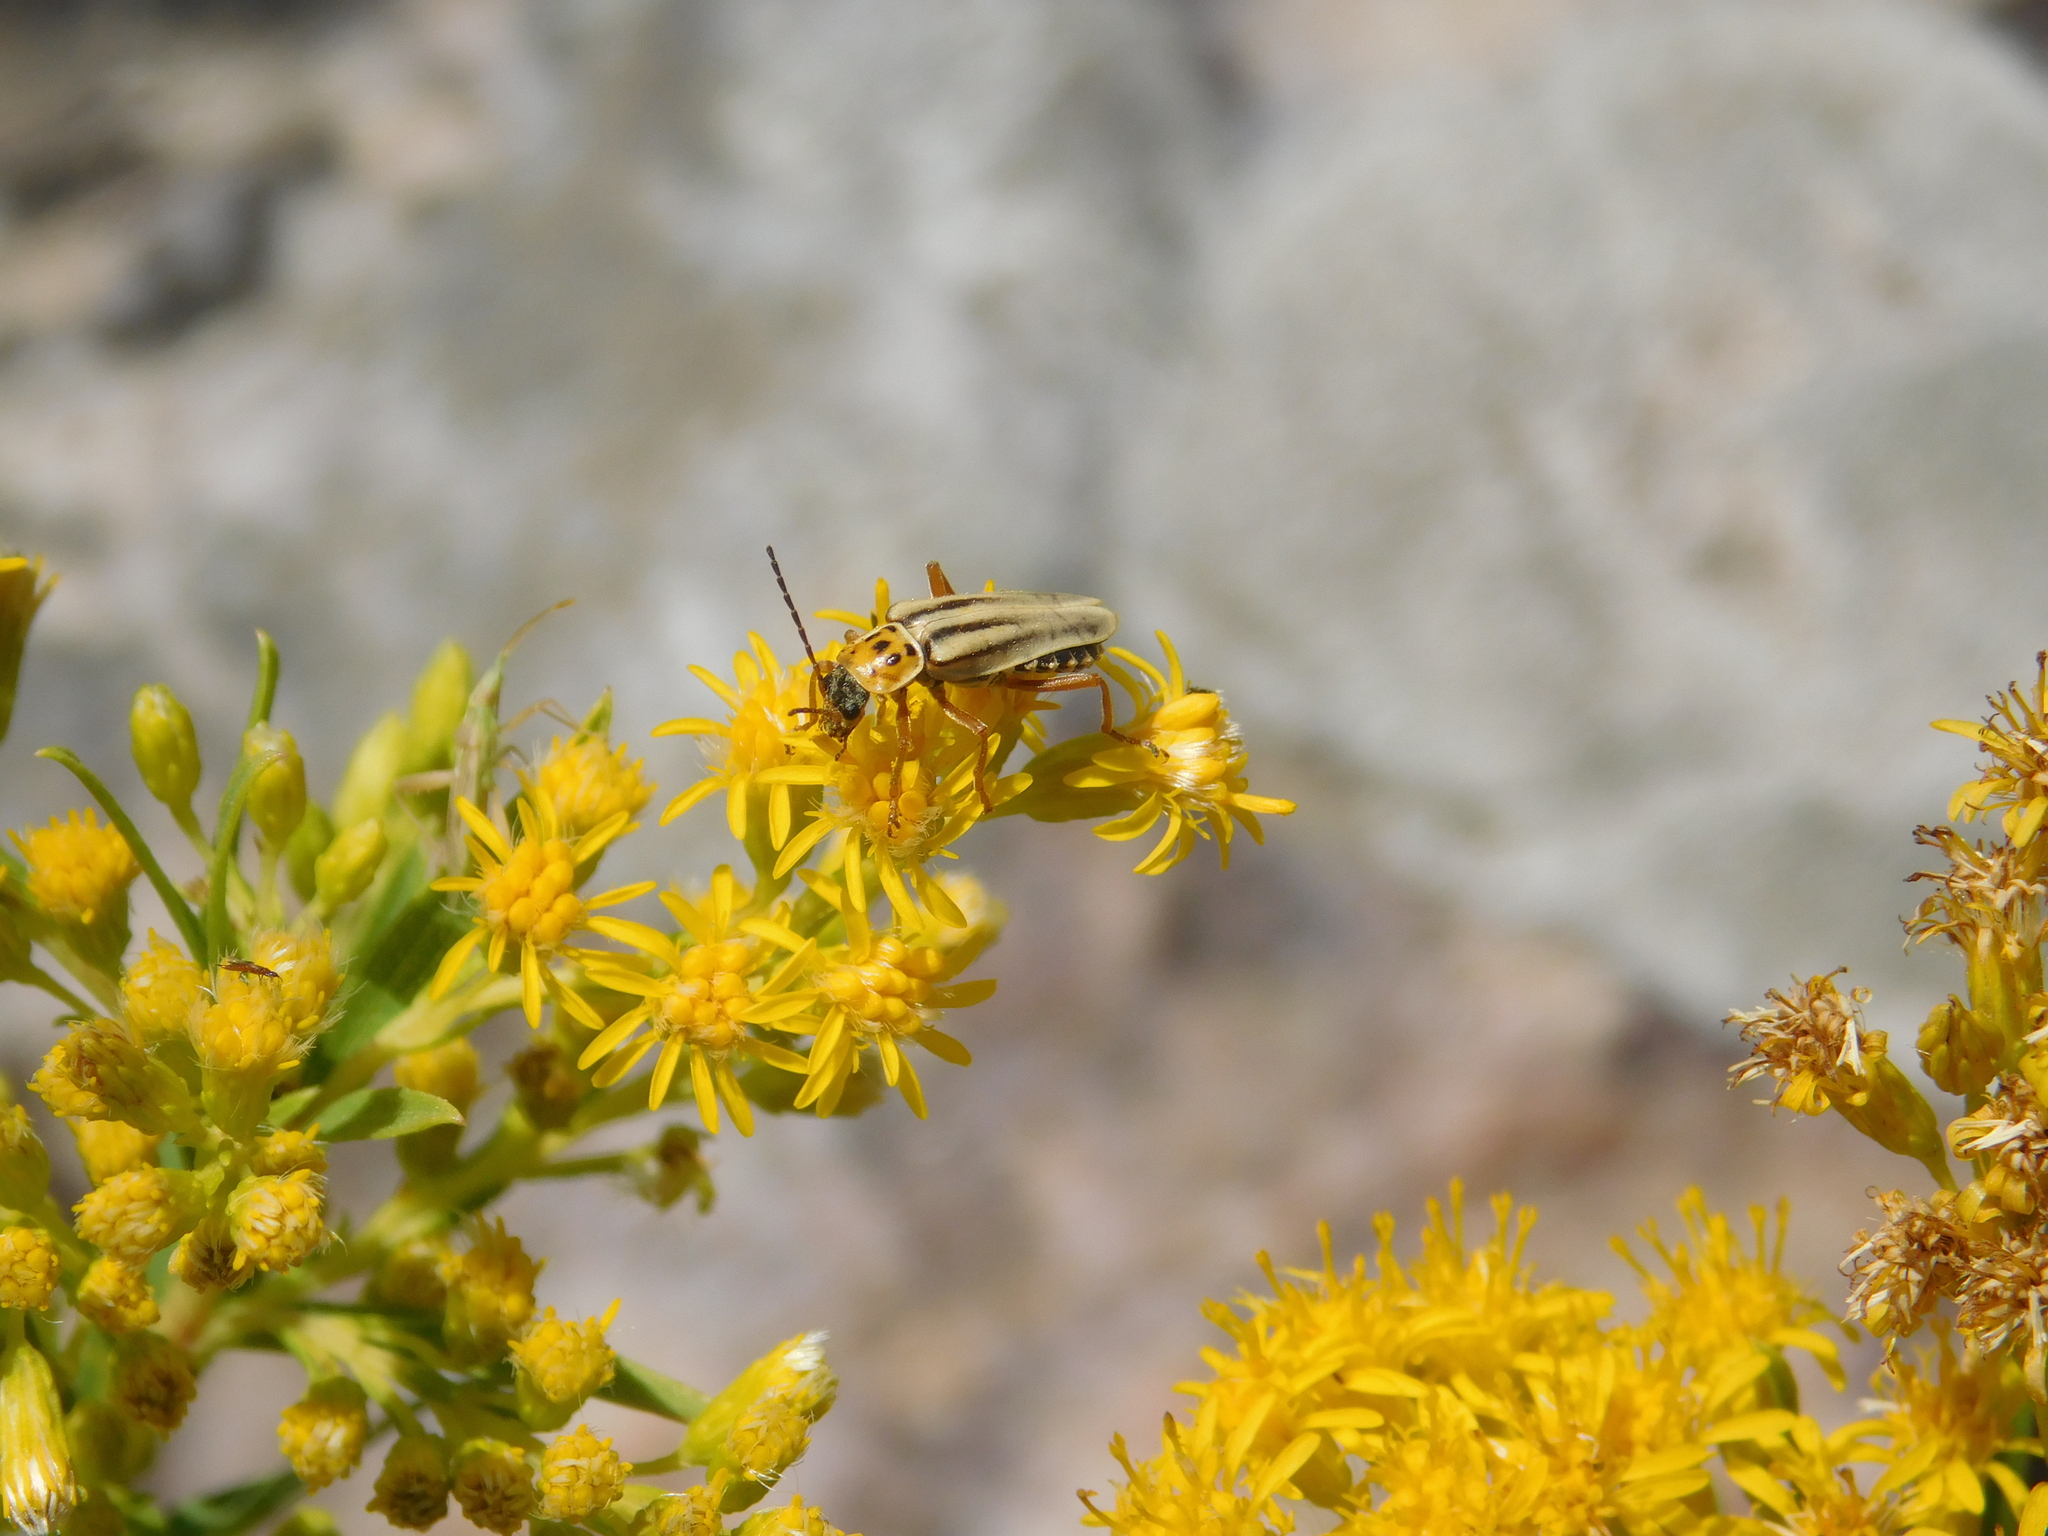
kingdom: Animalia
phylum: Arthropoda
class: Insecta
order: Coleoptera
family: Cantharidae
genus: Chauliognathus
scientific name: Chauliognathus
